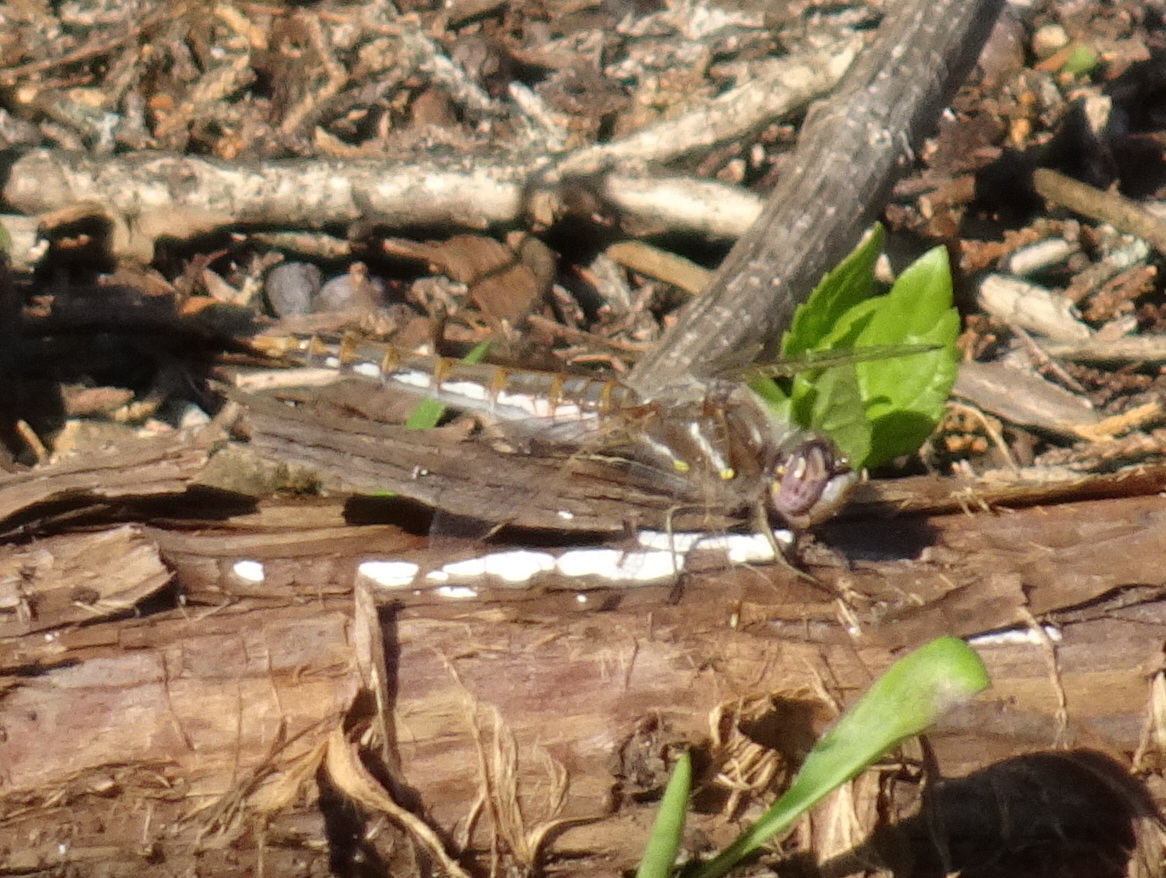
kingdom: Animalia
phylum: Arthropoda
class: Insecta
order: Odonata
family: Libellulidae
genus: Sympetrum
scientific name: Sympetrum corruptum
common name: Variegated meadowhawk
